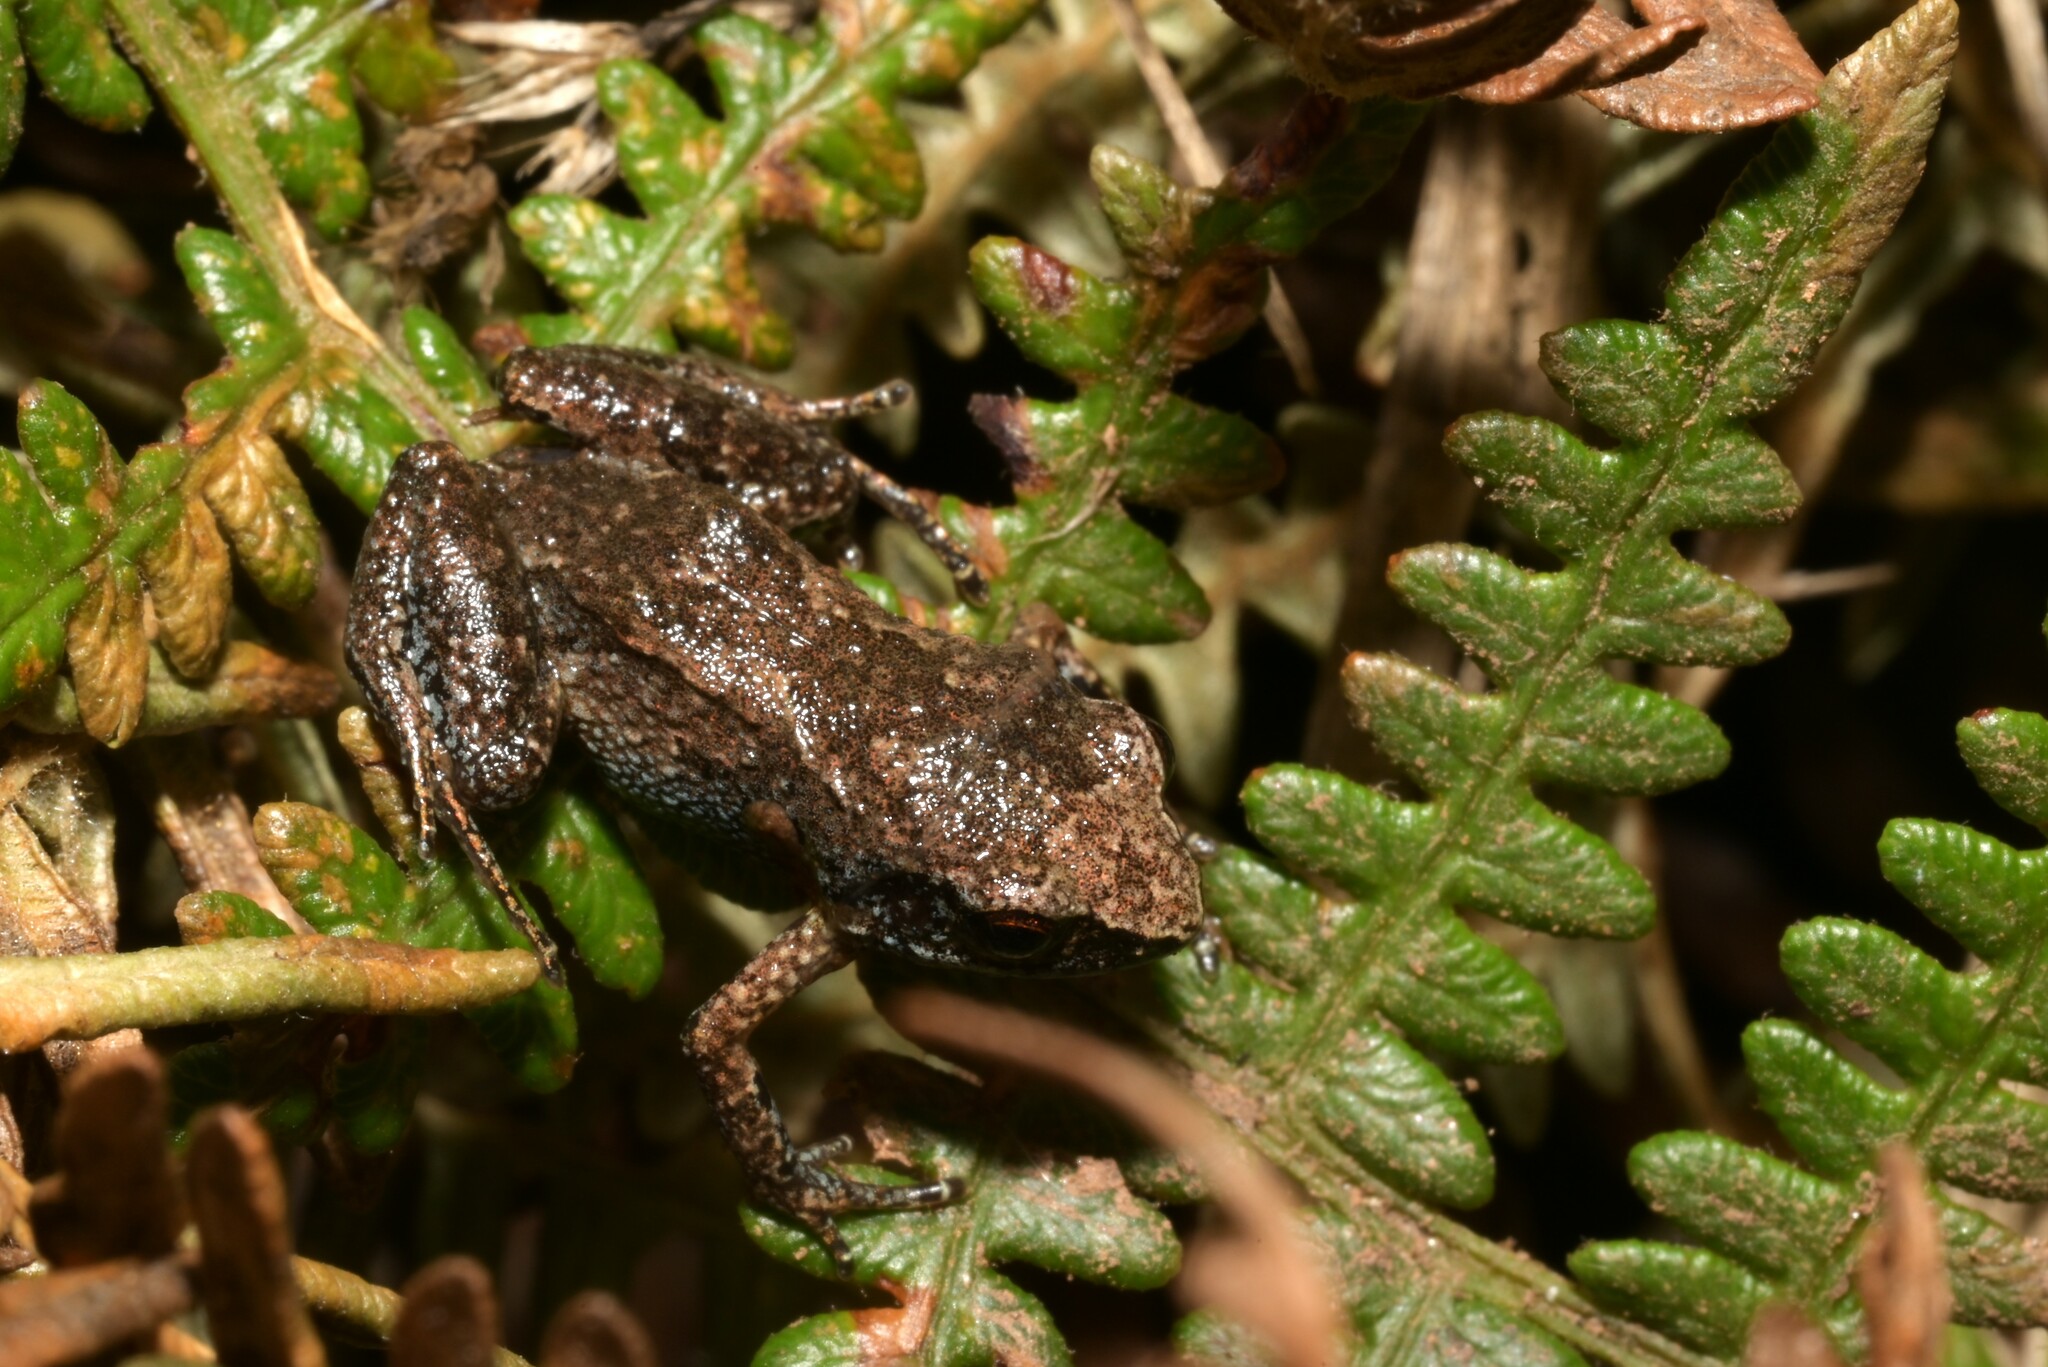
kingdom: Animalia
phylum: Chordata
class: Amphibia
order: Anura
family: Arthroleptidae
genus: Arthroleptis
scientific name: Arthroleptis xenodactyloides
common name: Chirinda screeching frog
